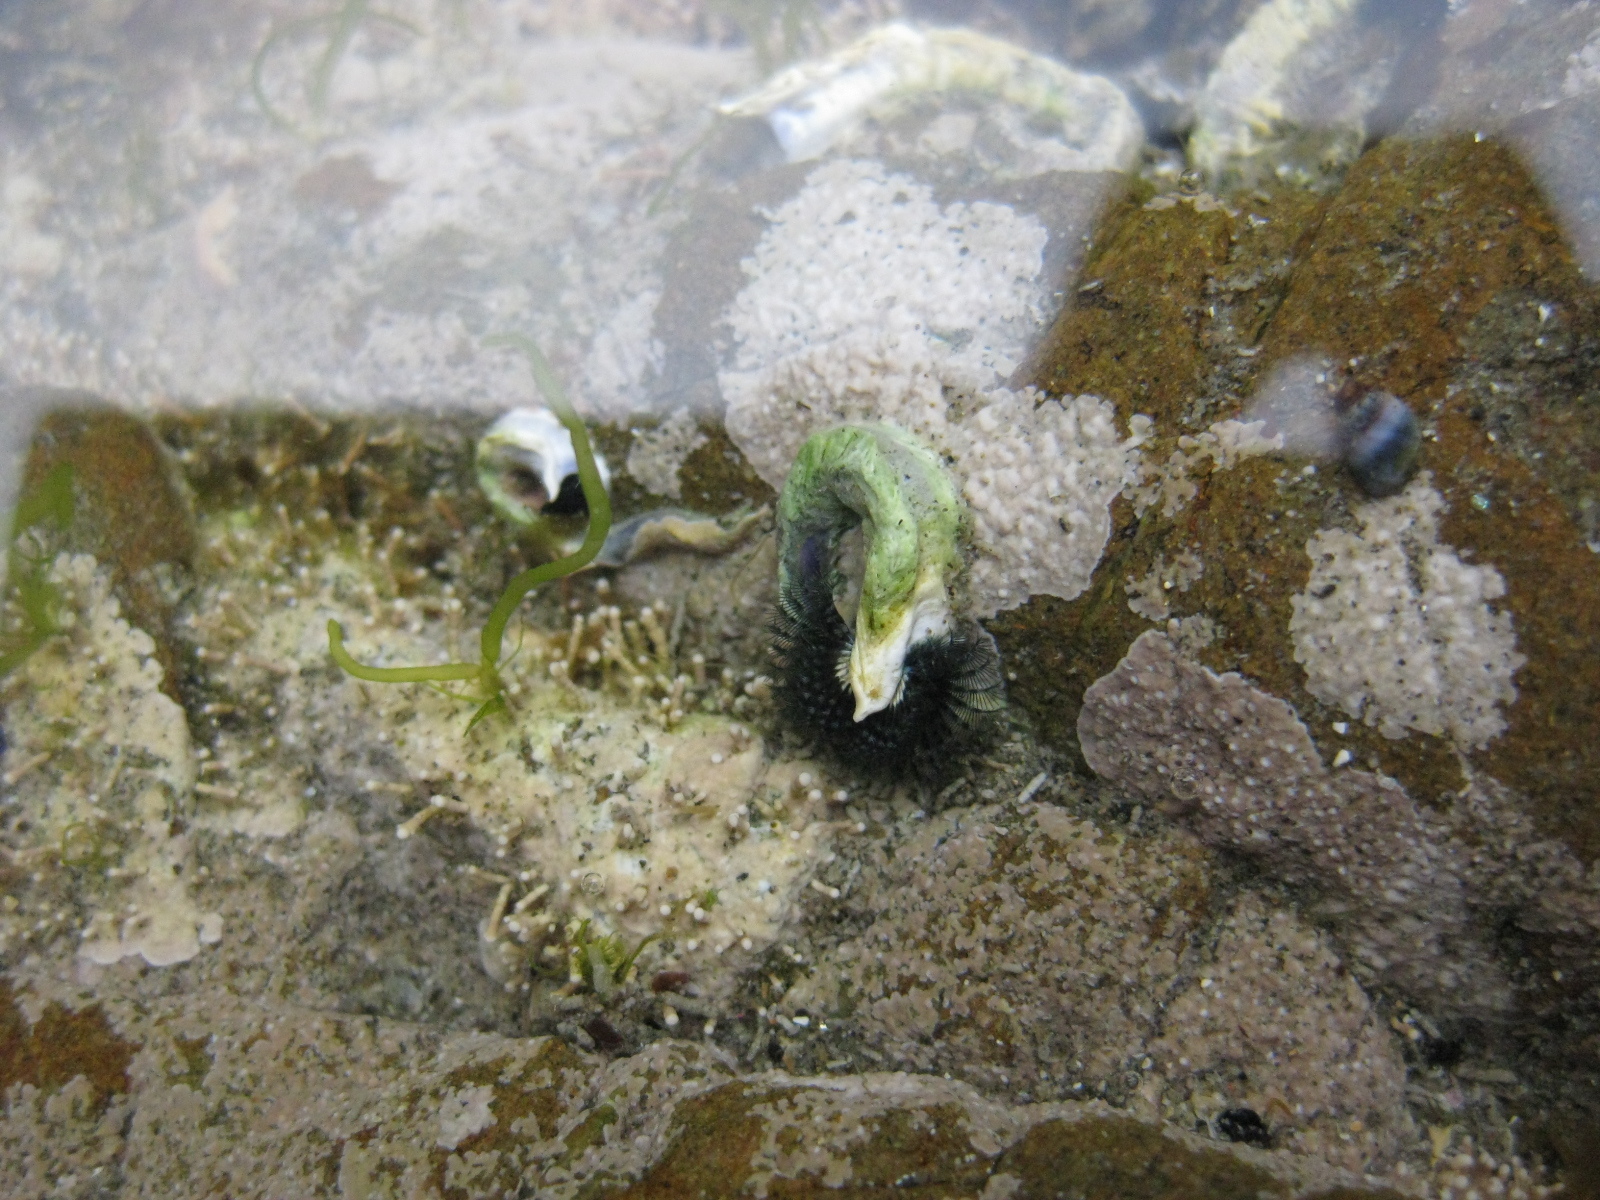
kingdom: Animalia
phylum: Annelida
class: Polychaeta
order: Sabellida
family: Serpulidae
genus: Spirobranchus
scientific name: Spirobranchus cariniferus
